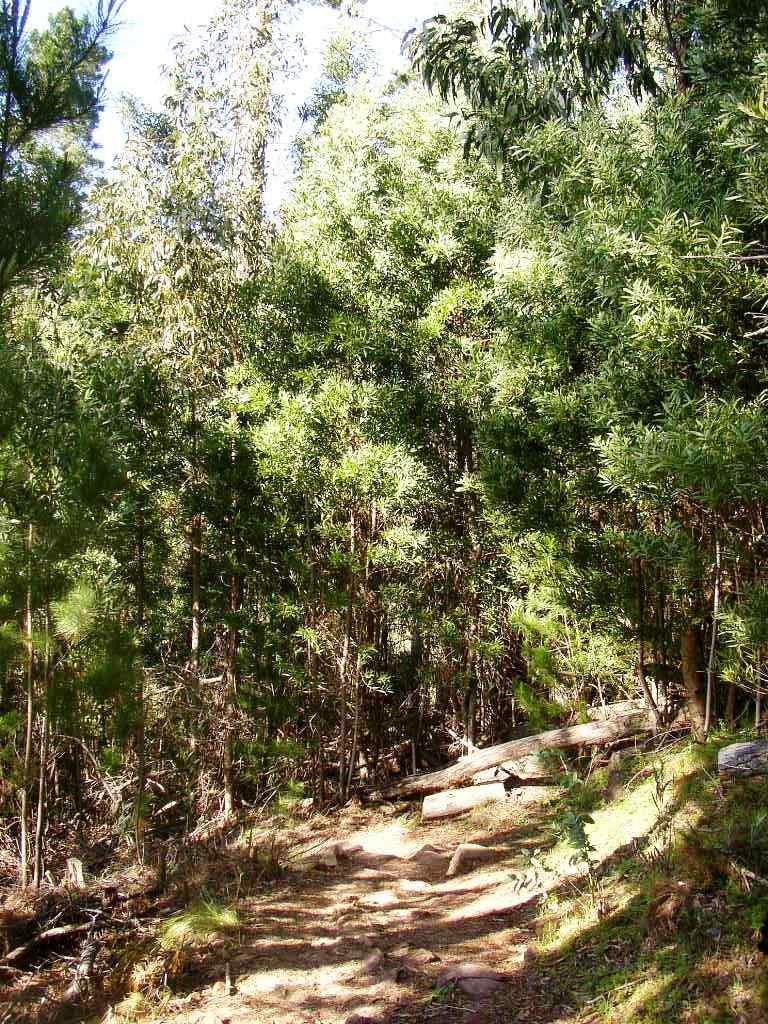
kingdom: Plantae
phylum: Tracheophyta
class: Magnoliopsida
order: Fabales
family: Fabaceae
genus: Acacia
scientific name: Acacia melanoxylon
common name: Blackwood
